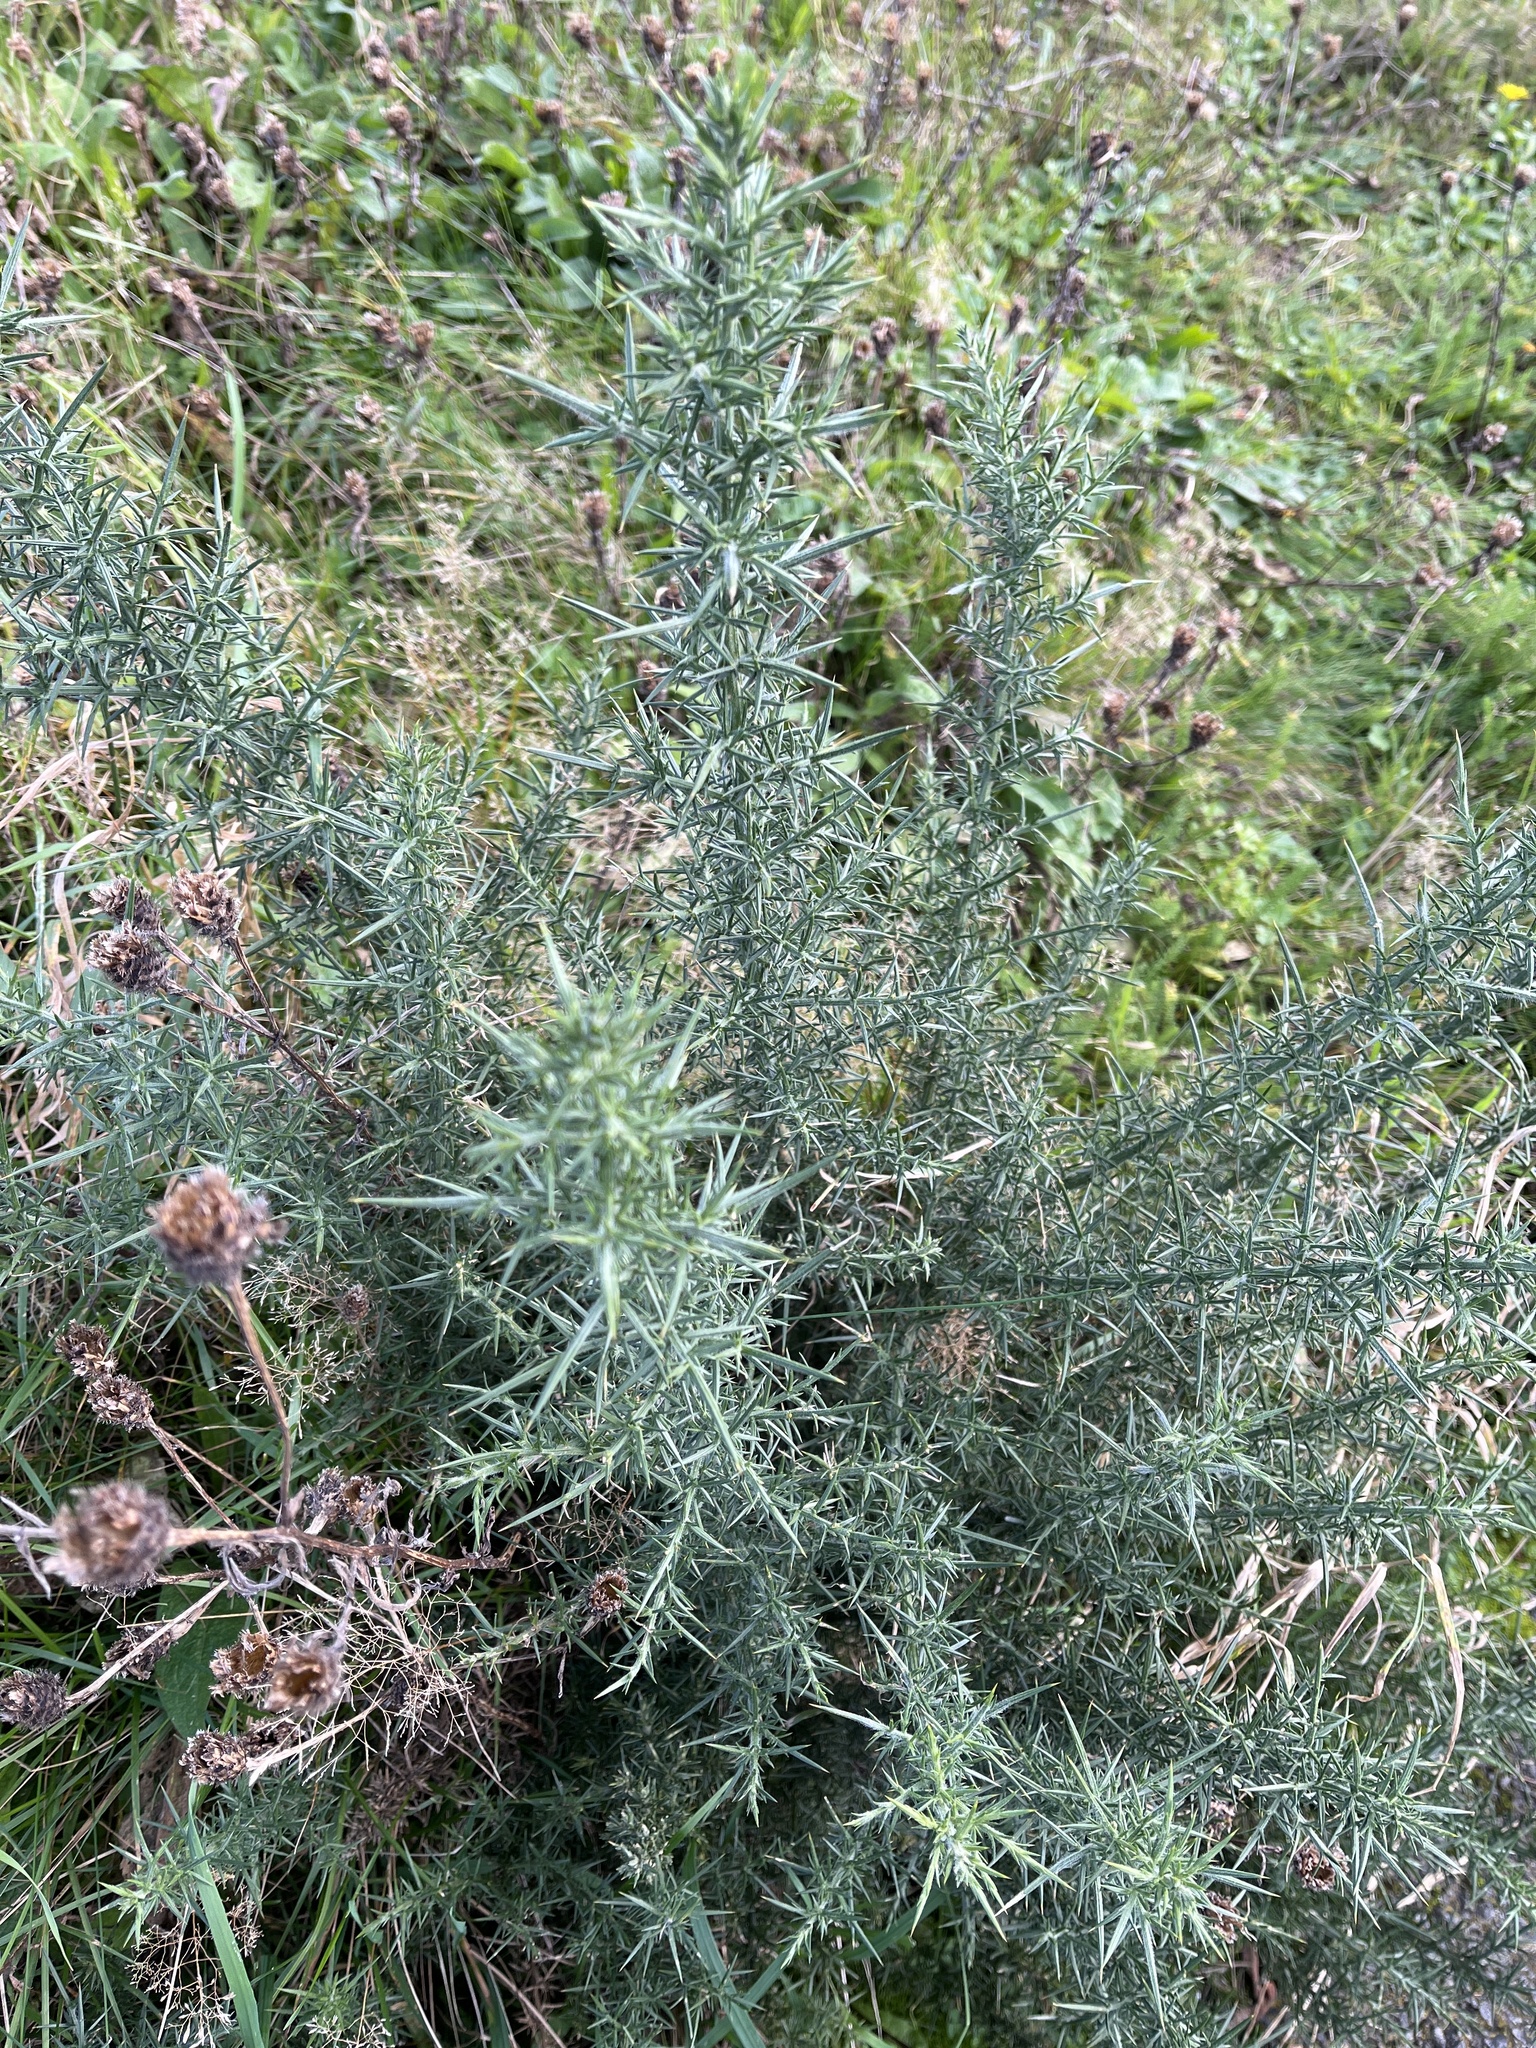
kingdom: Plantae
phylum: Tracheophyta
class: Magnoliopsida
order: Fabales
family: Fabaceae
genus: Ulex
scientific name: Ulex europaeus
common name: Common gorse
